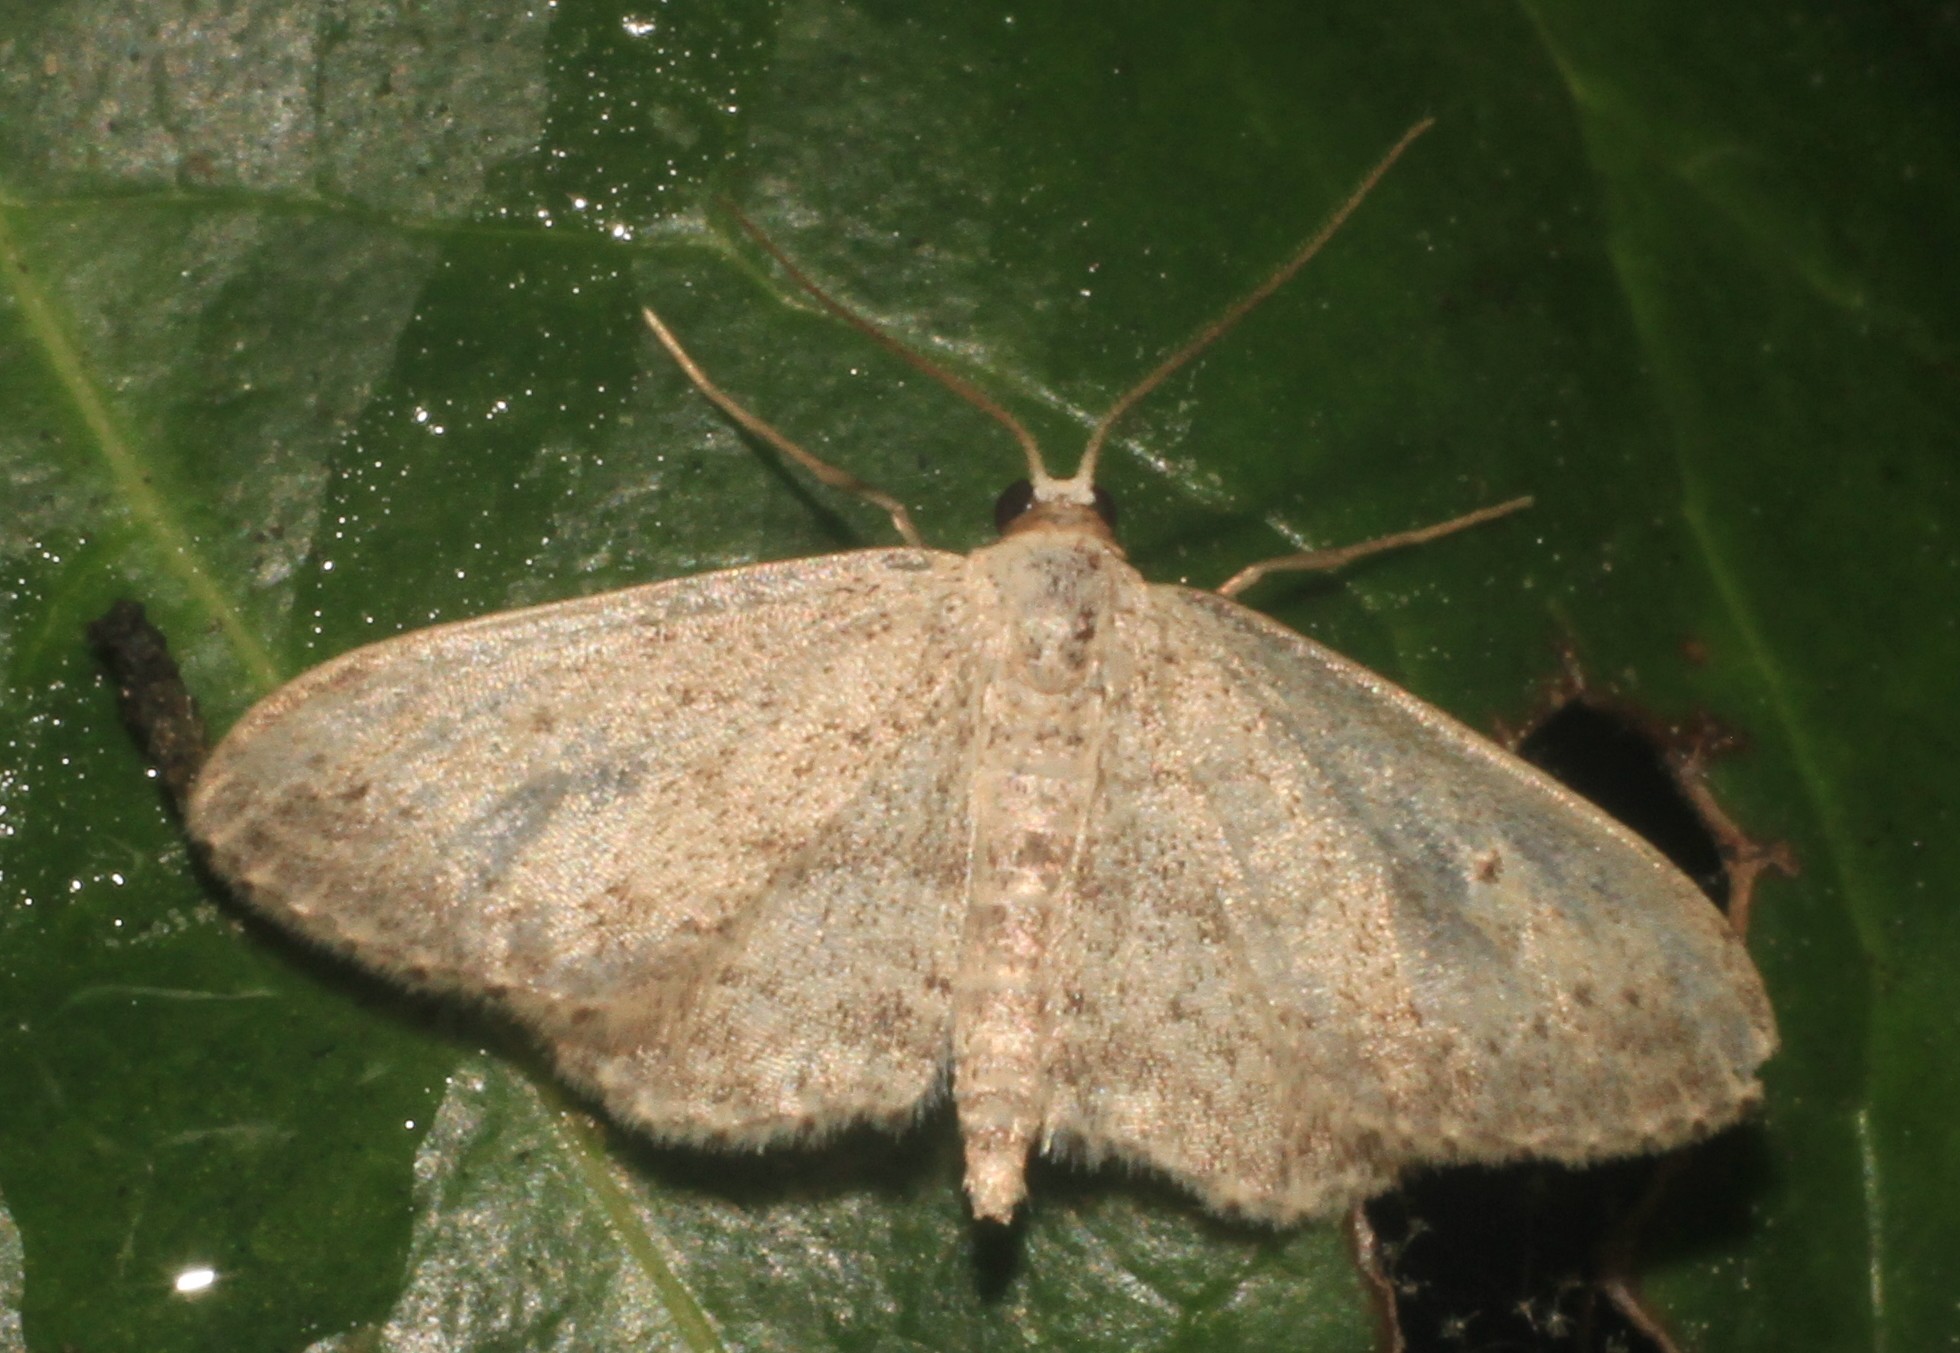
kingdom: Animalia
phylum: Arthropoda
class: Insecta
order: Lepidoptera
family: Geometridae
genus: Idaea
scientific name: Idaea seriata
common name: Small dusty wave
